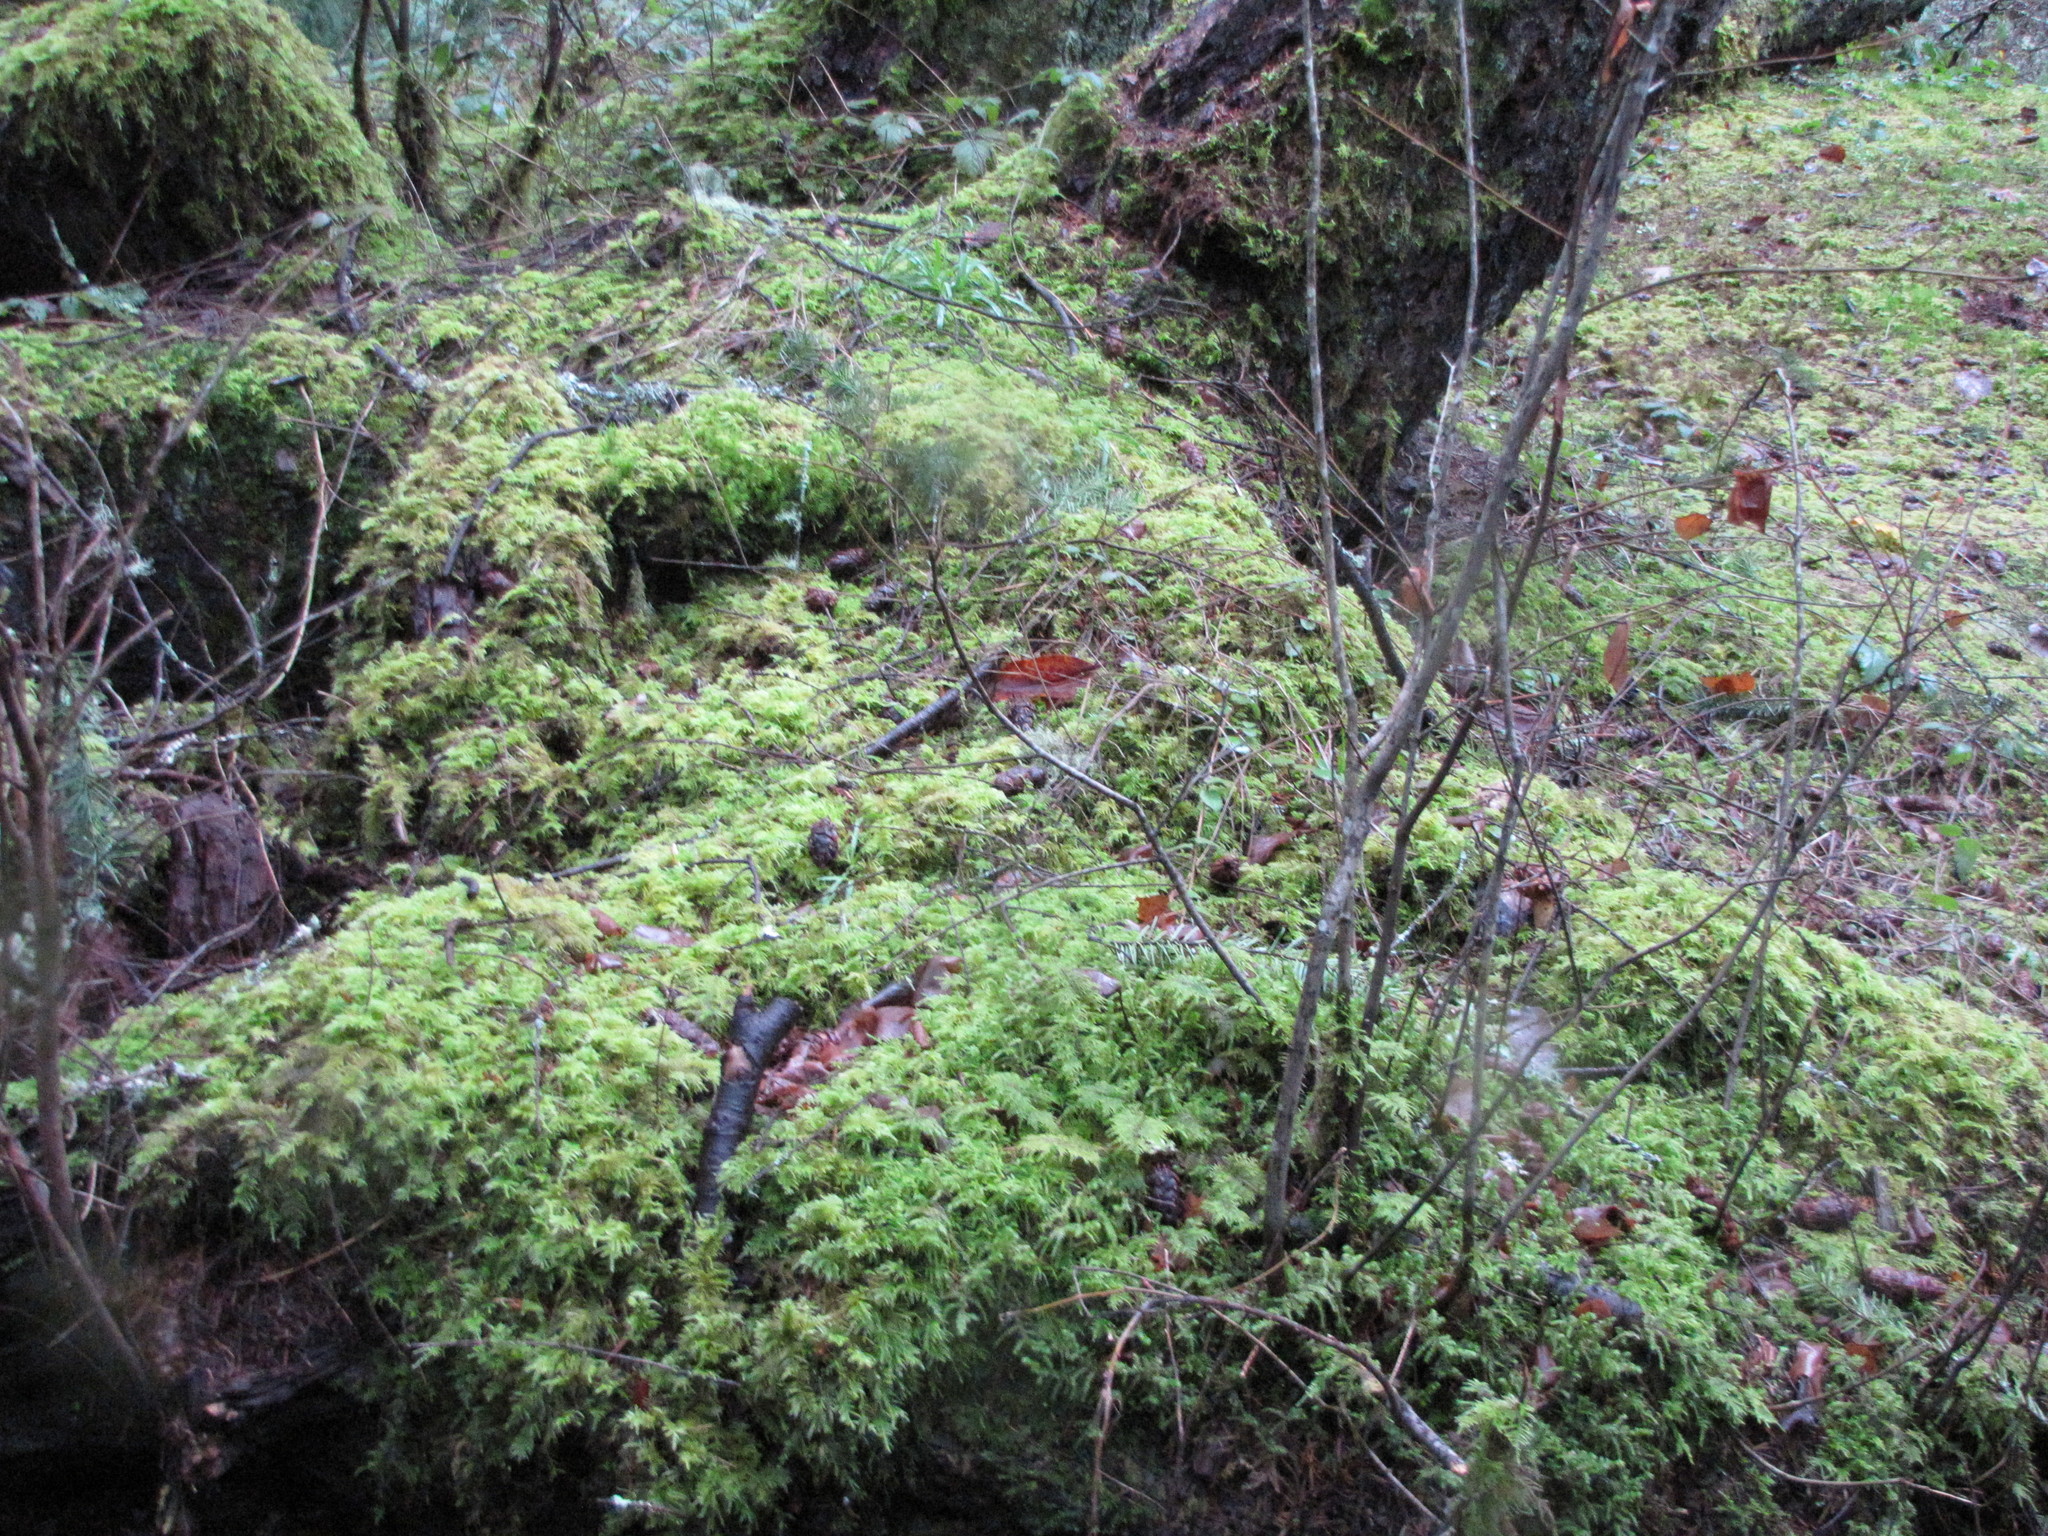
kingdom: Plantae
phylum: Bryophyta
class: Bryopsida
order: Hypnales
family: Hylocomiaceae
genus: Hylocomium
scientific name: Hylocomium splendens
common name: Stairstep moss
